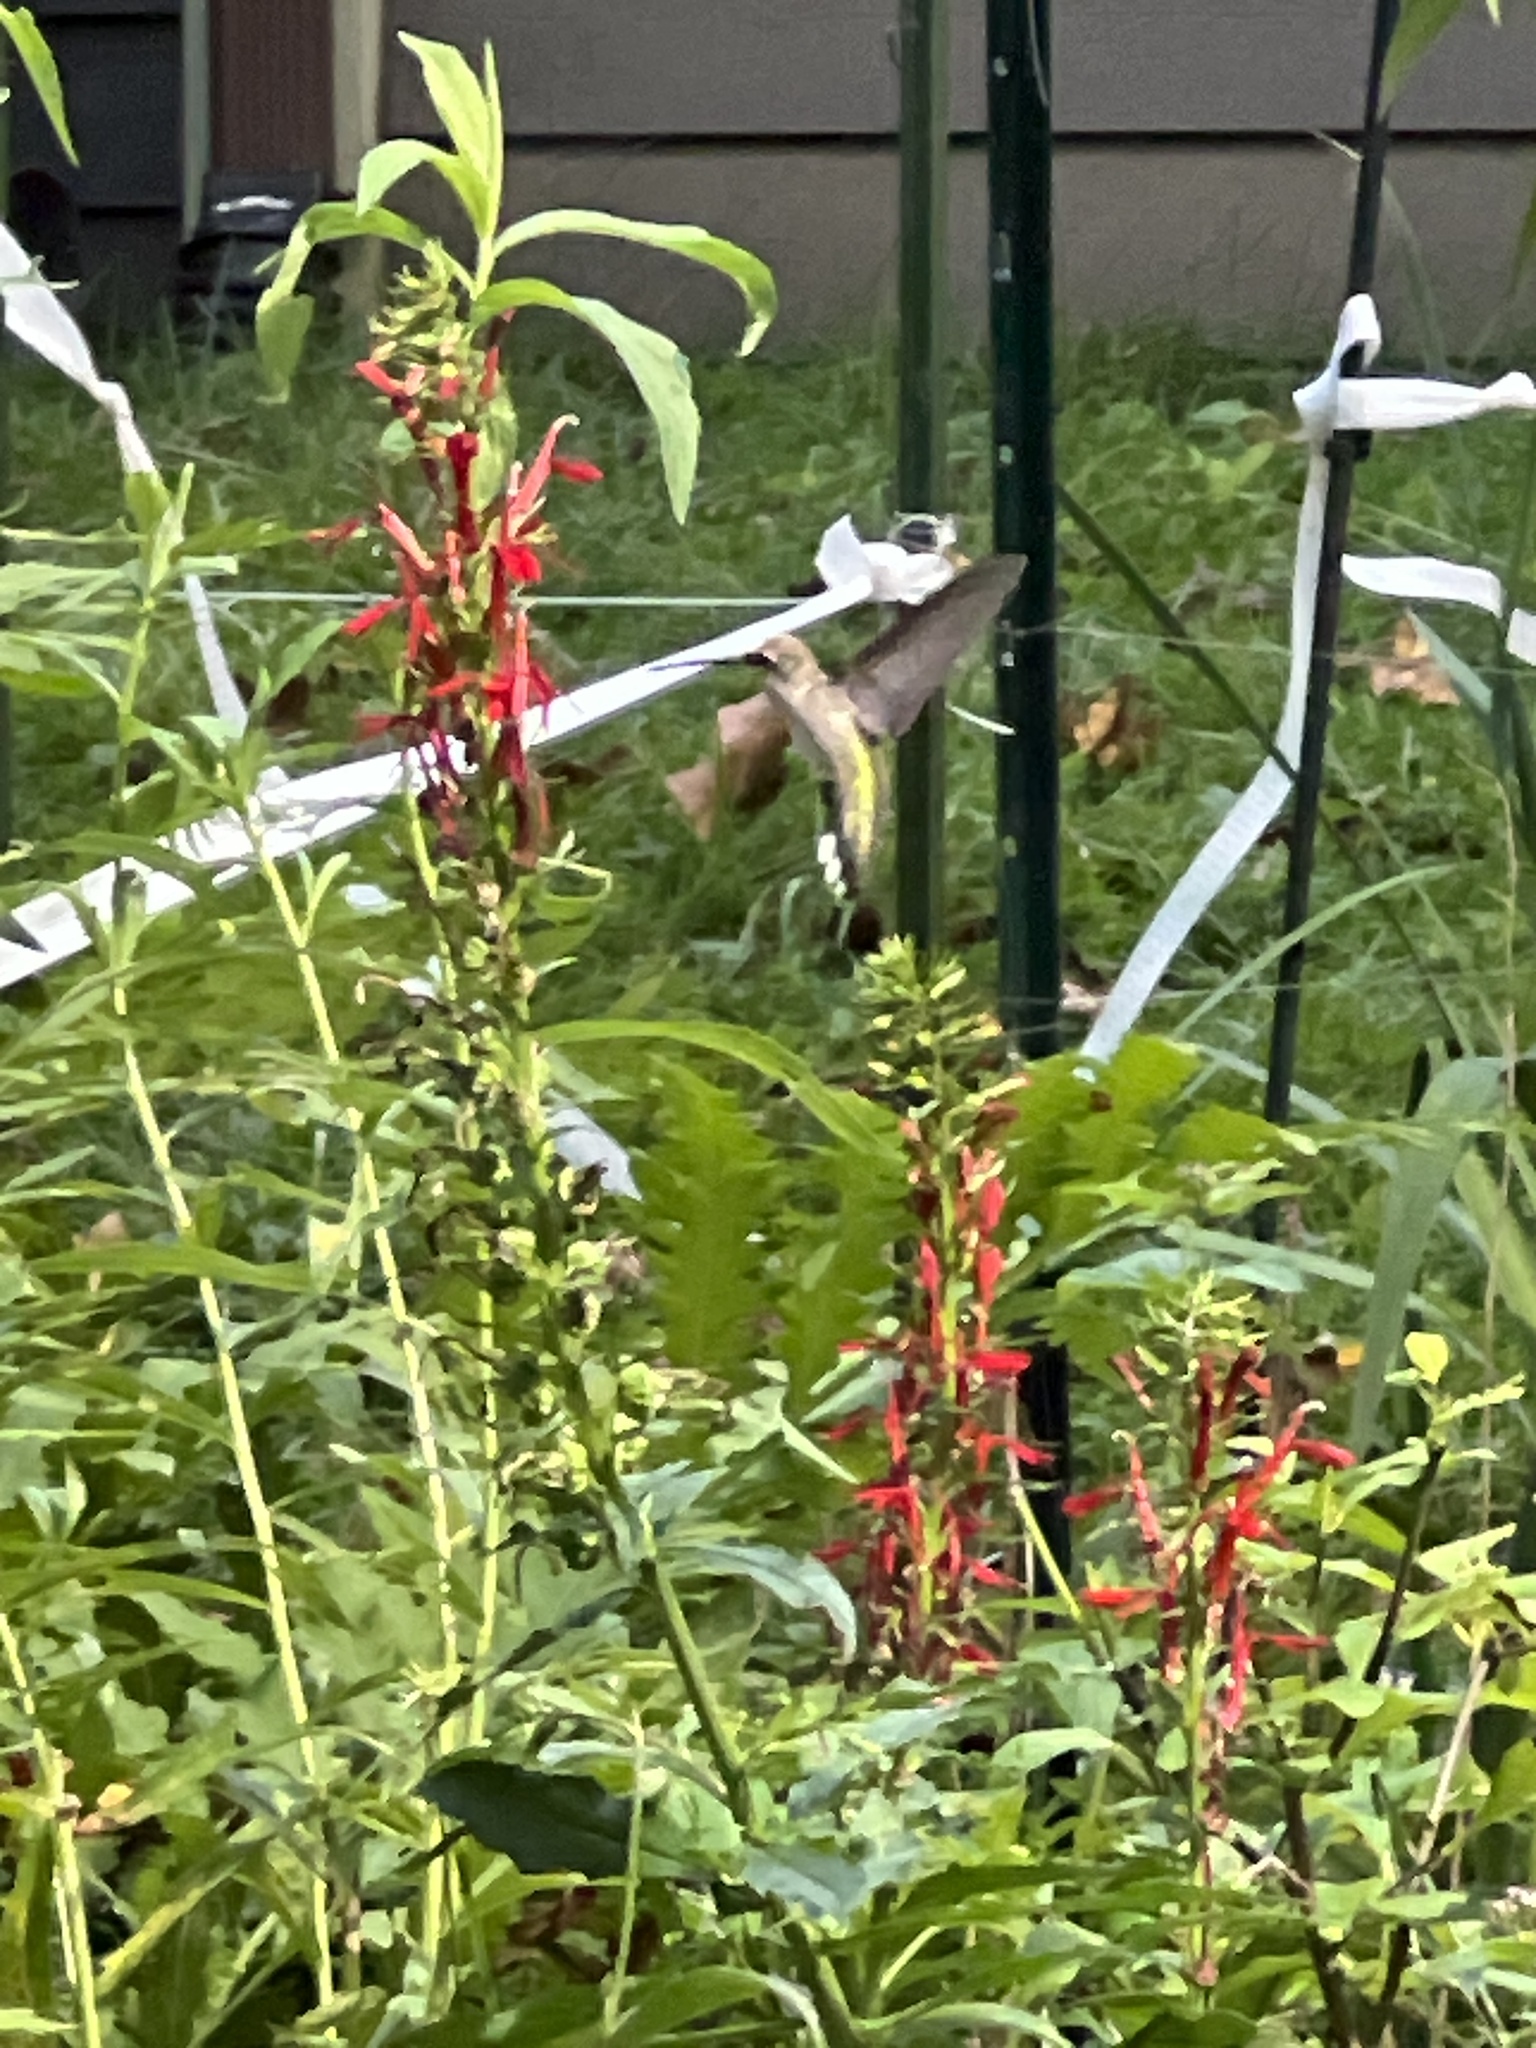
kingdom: Animalia
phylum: Chordata
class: Aves
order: Apodiformes
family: Trochilidae
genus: Archilochus
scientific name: Archilochus colubris
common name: Ruby-throated hummingbird
